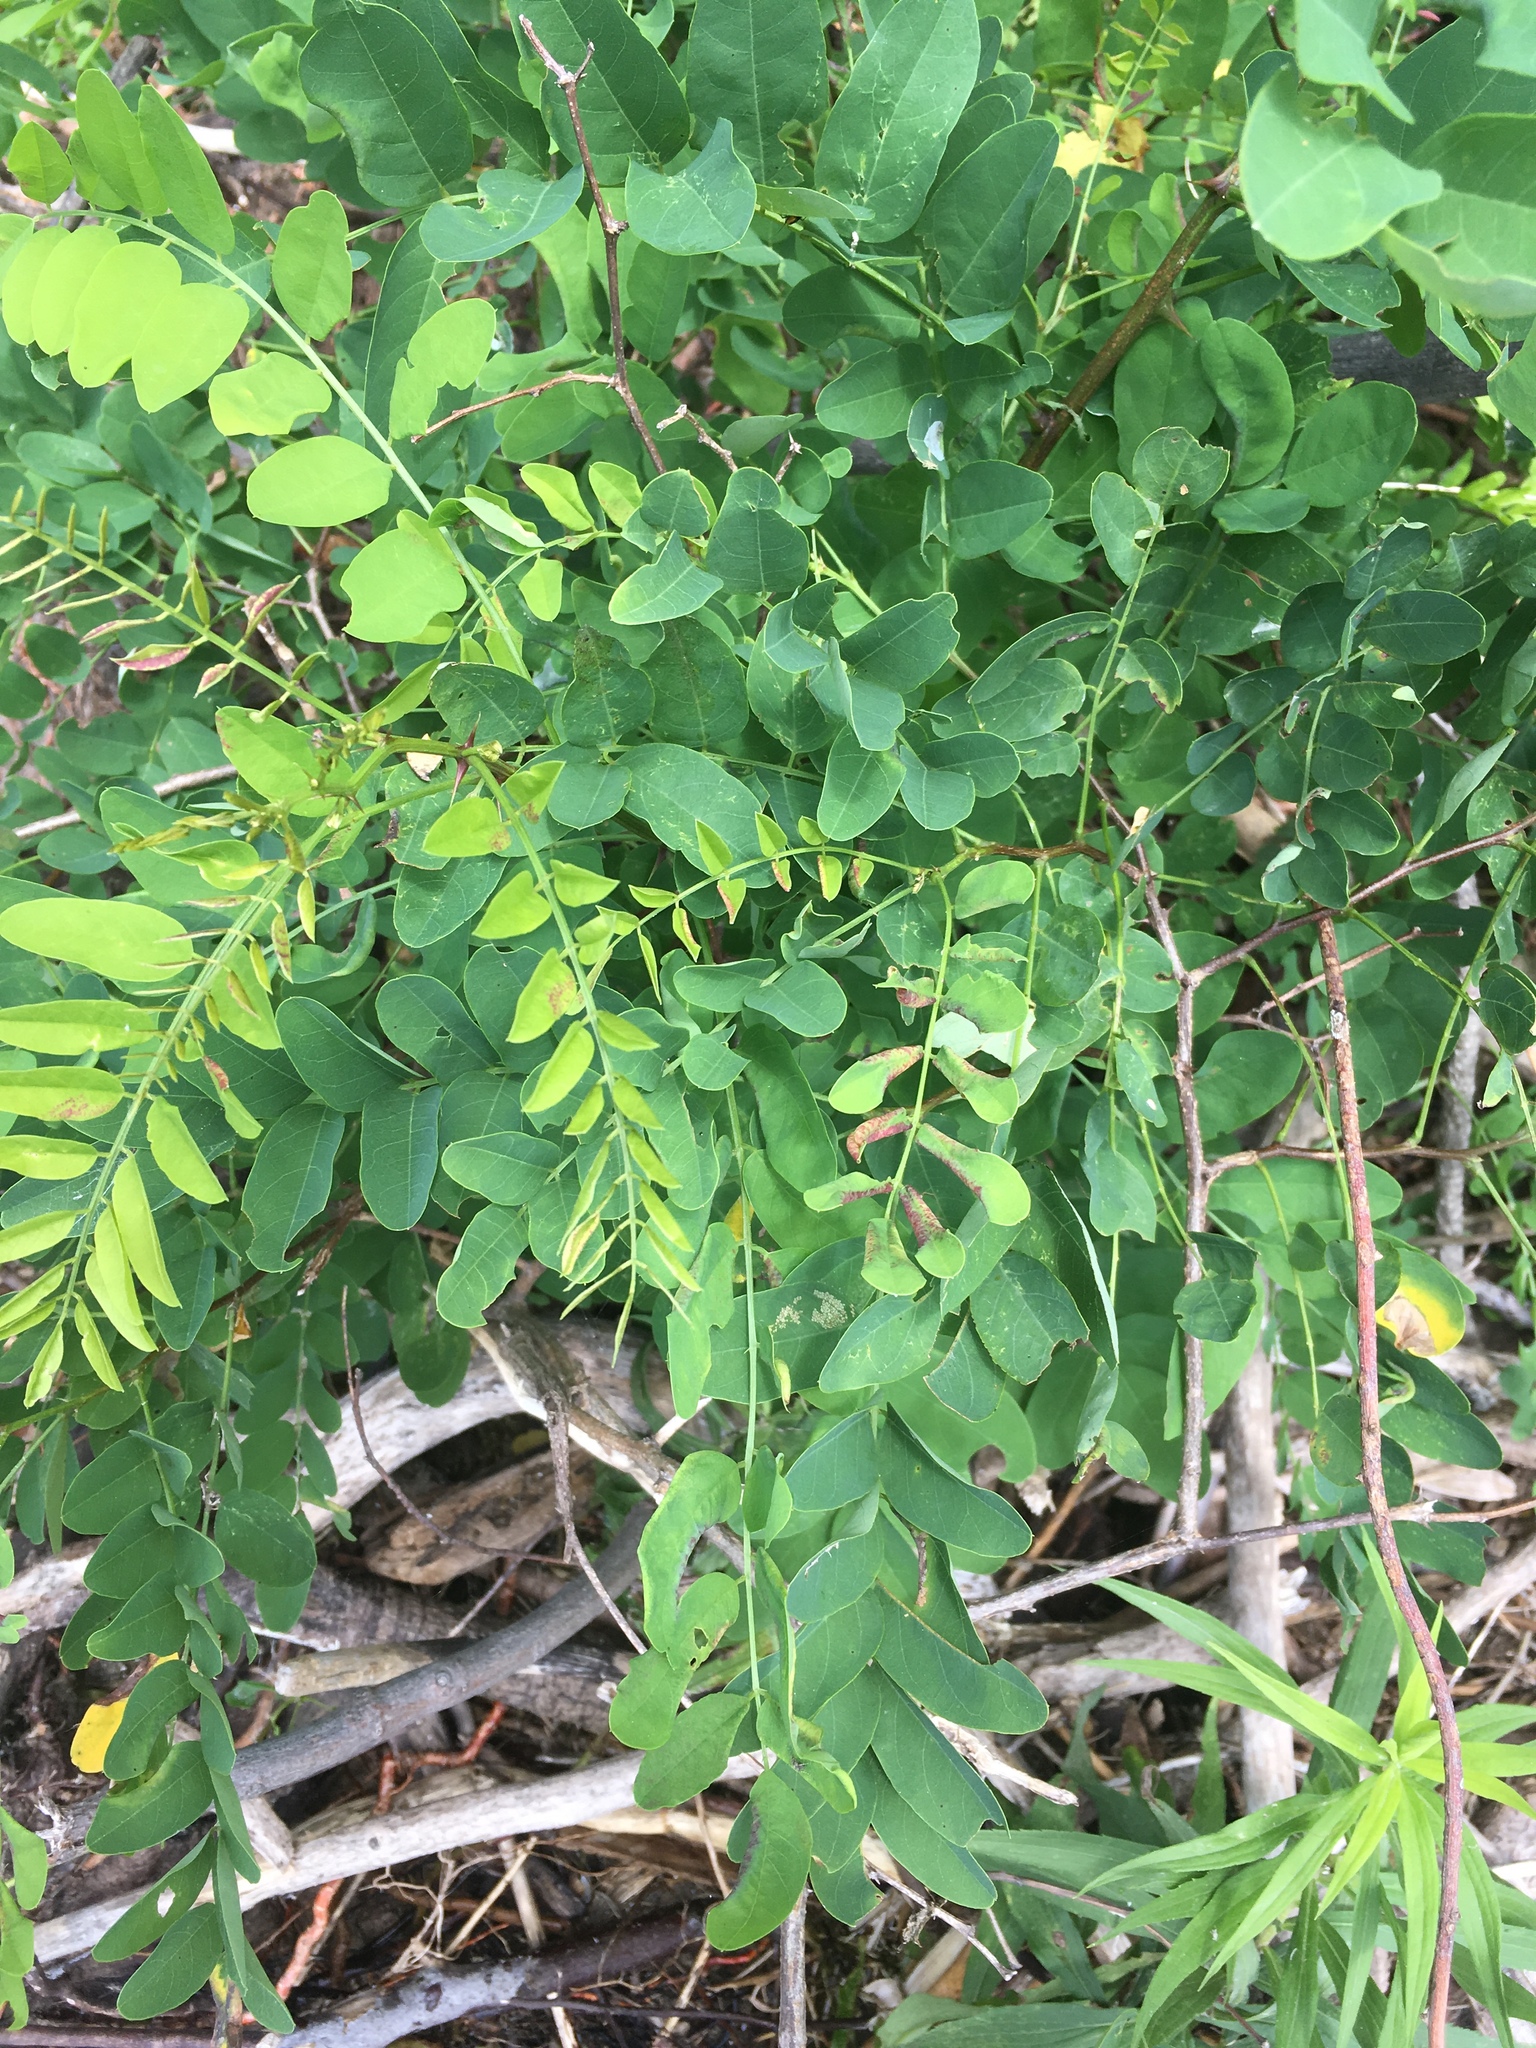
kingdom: Plantae
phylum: Tracheophyta
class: Magnoliopsida
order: Fabales
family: Fabaceae
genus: Robinia
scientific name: Robinia pseudoacacia
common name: Black locust
